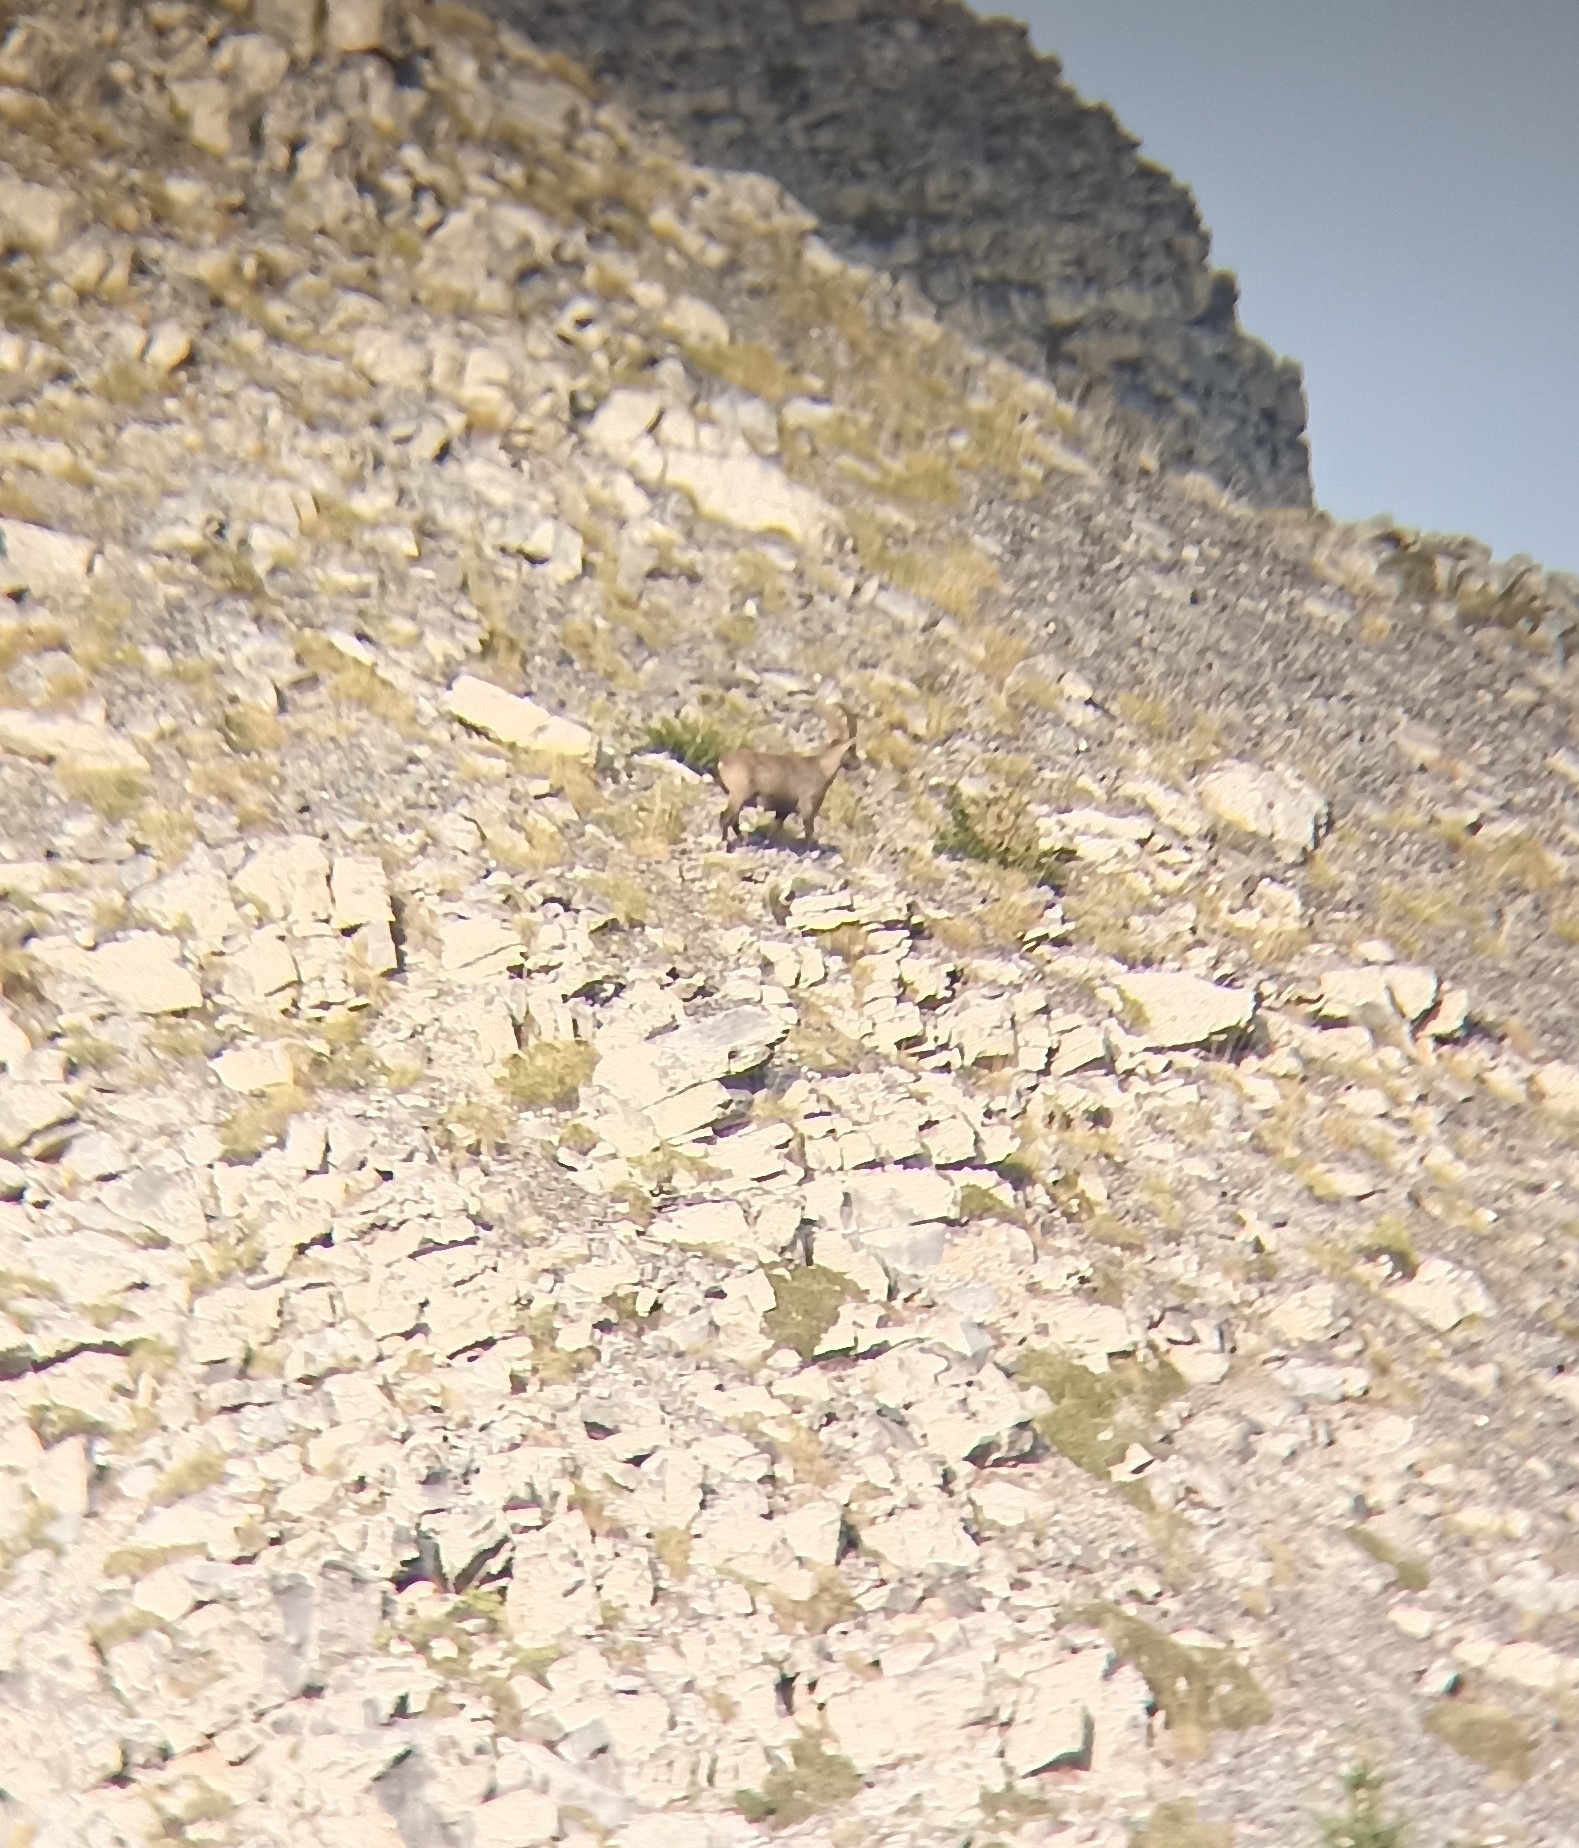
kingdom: Animalia
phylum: Chordata
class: Mammalia
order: Artiodactyla
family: Bovidae
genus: Capra
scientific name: Capra ibex
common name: Alpine ibex
